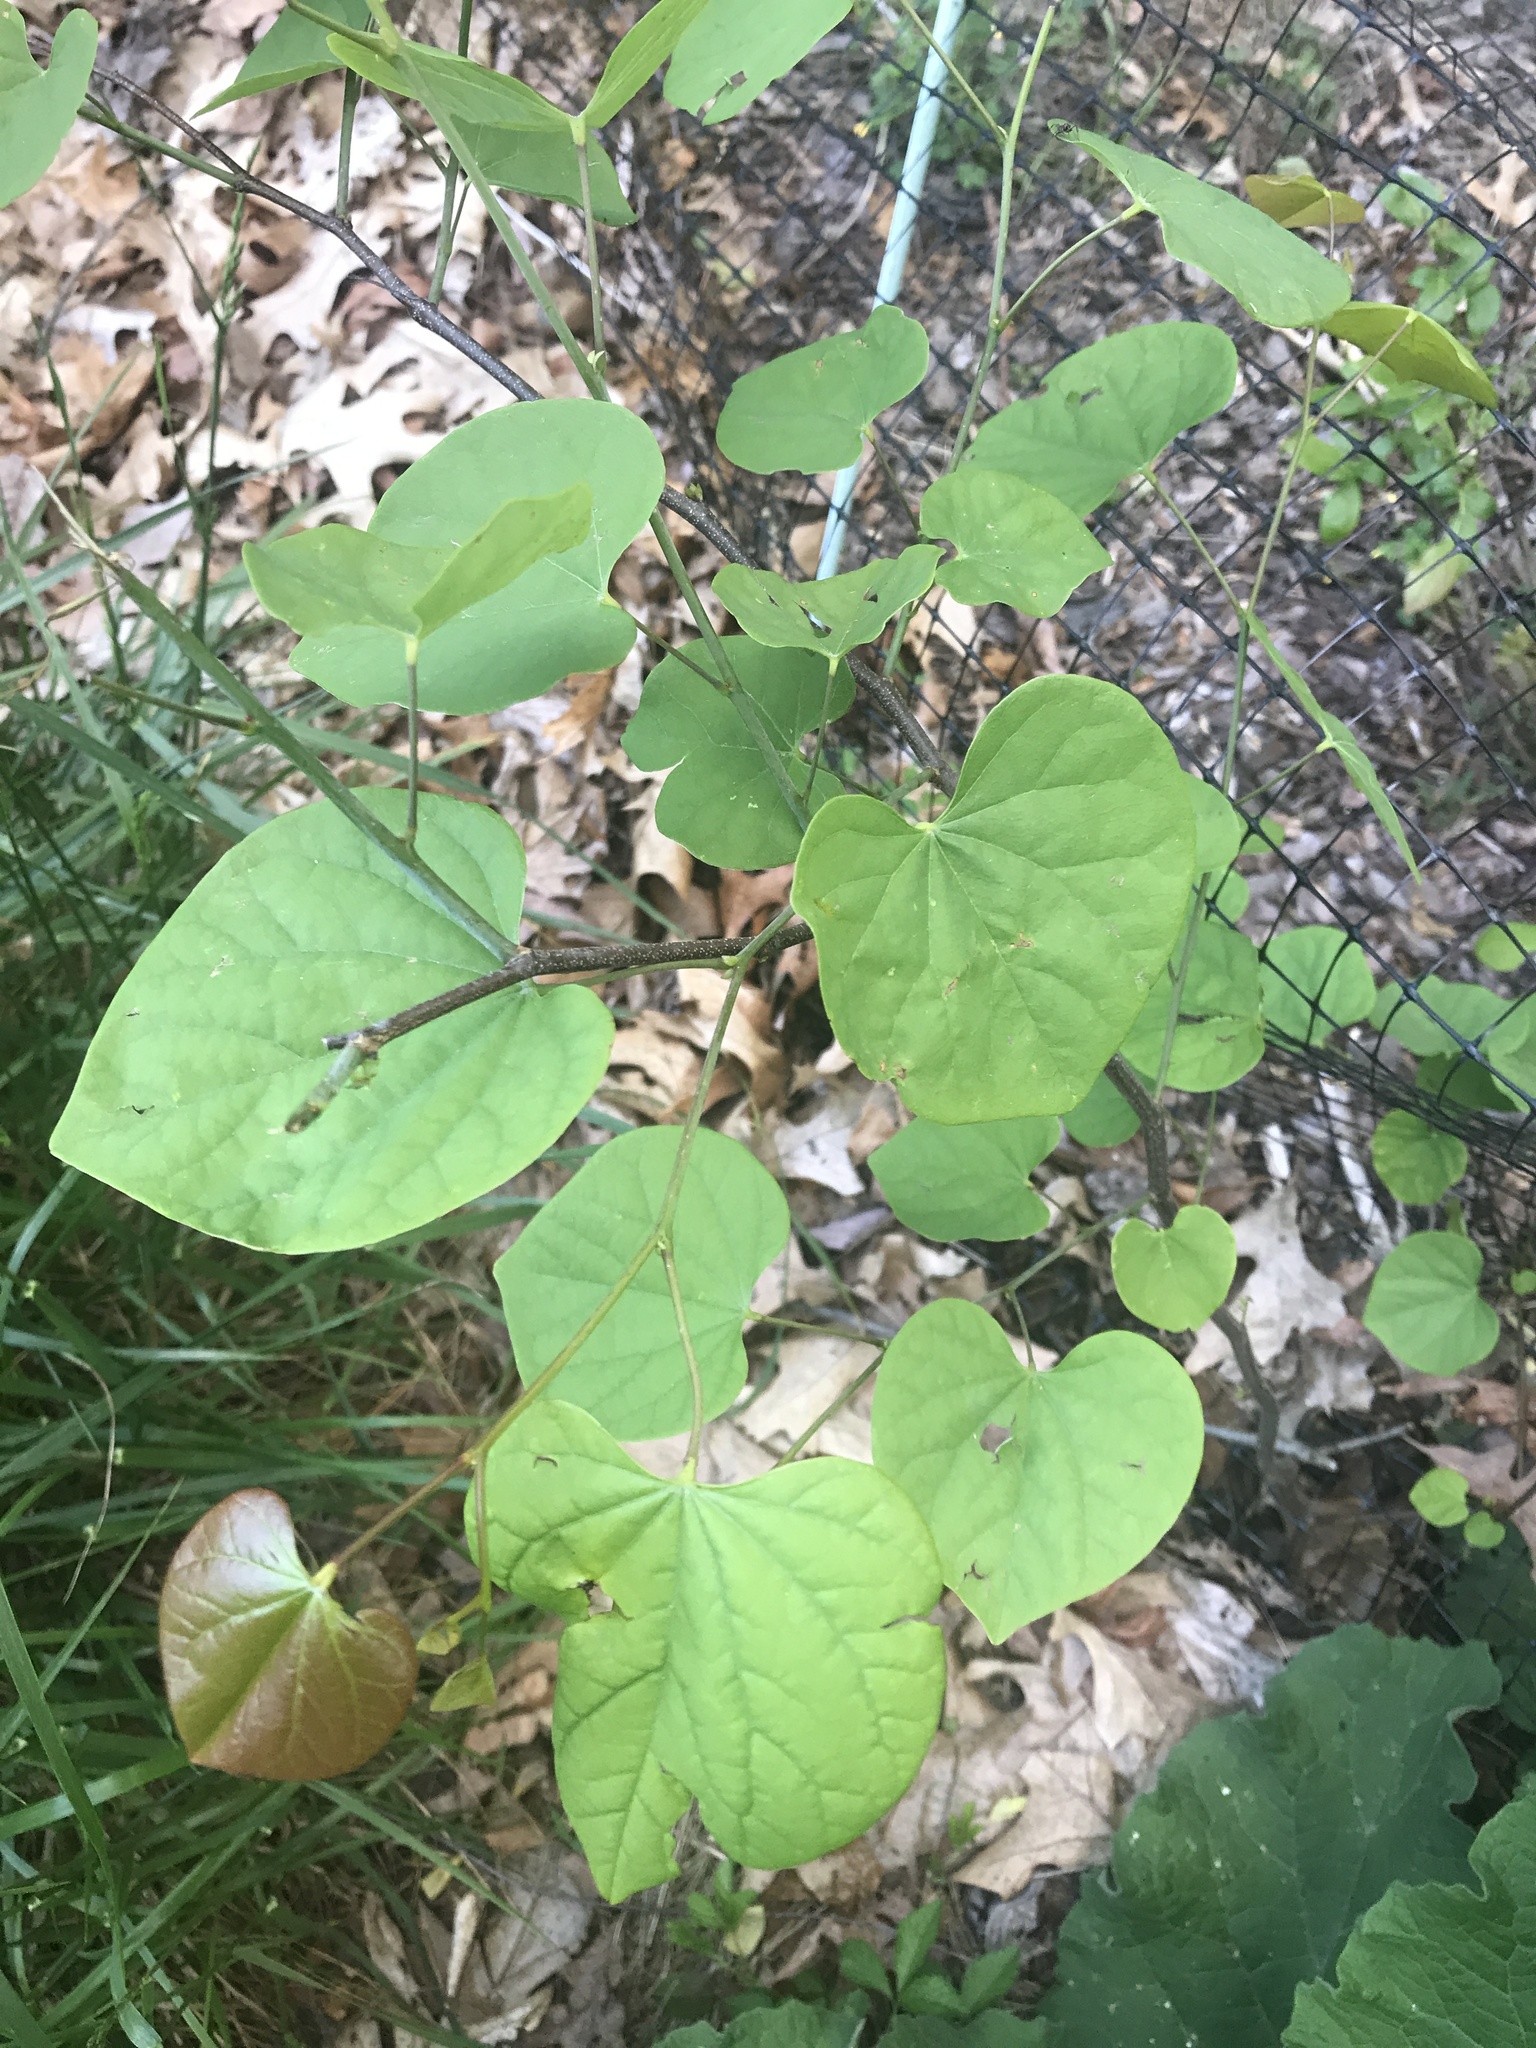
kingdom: Plantae
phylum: Tracheophyta
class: Magnoliopsida
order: Fabales
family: Fabaceae
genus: Cercis
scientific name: Cercis canadensis
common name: Eastern redbud
